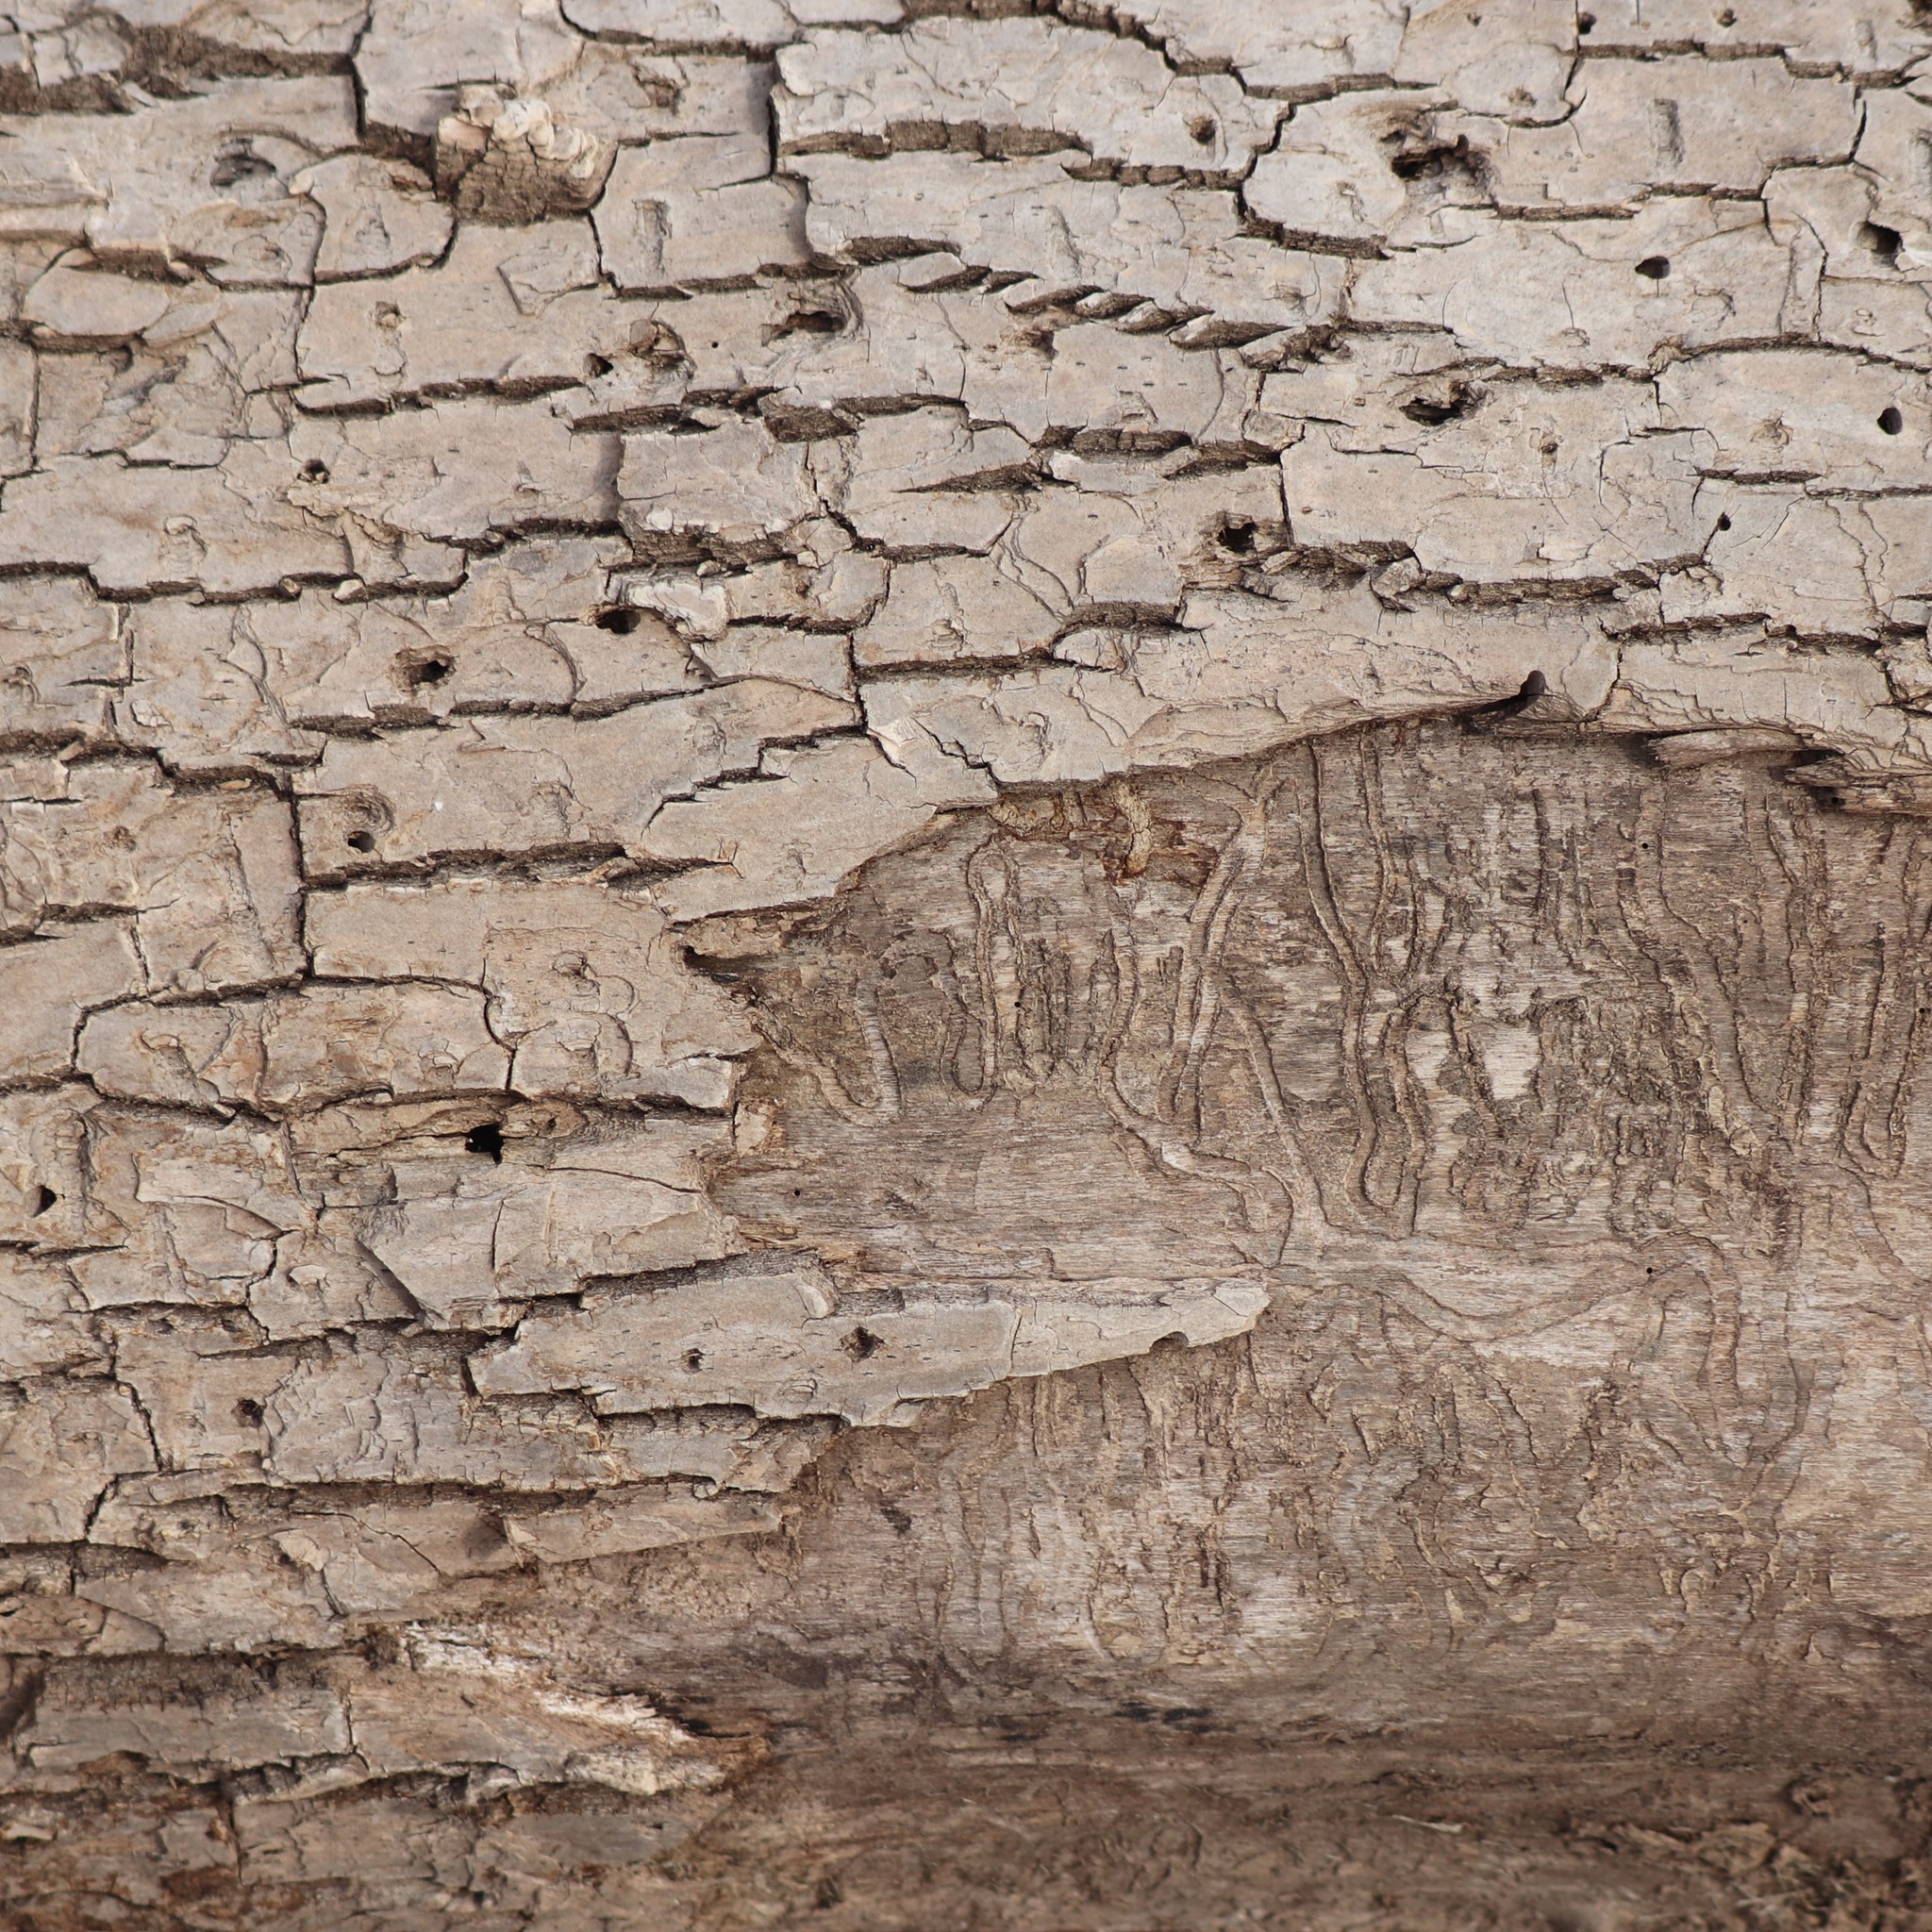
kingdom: Animalia
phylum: Arthropoda
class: Insecta
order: Coleoptera
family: Buprestidae
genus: Agrilus
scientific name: Agrilus planipennis
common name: Emerald ash borer
